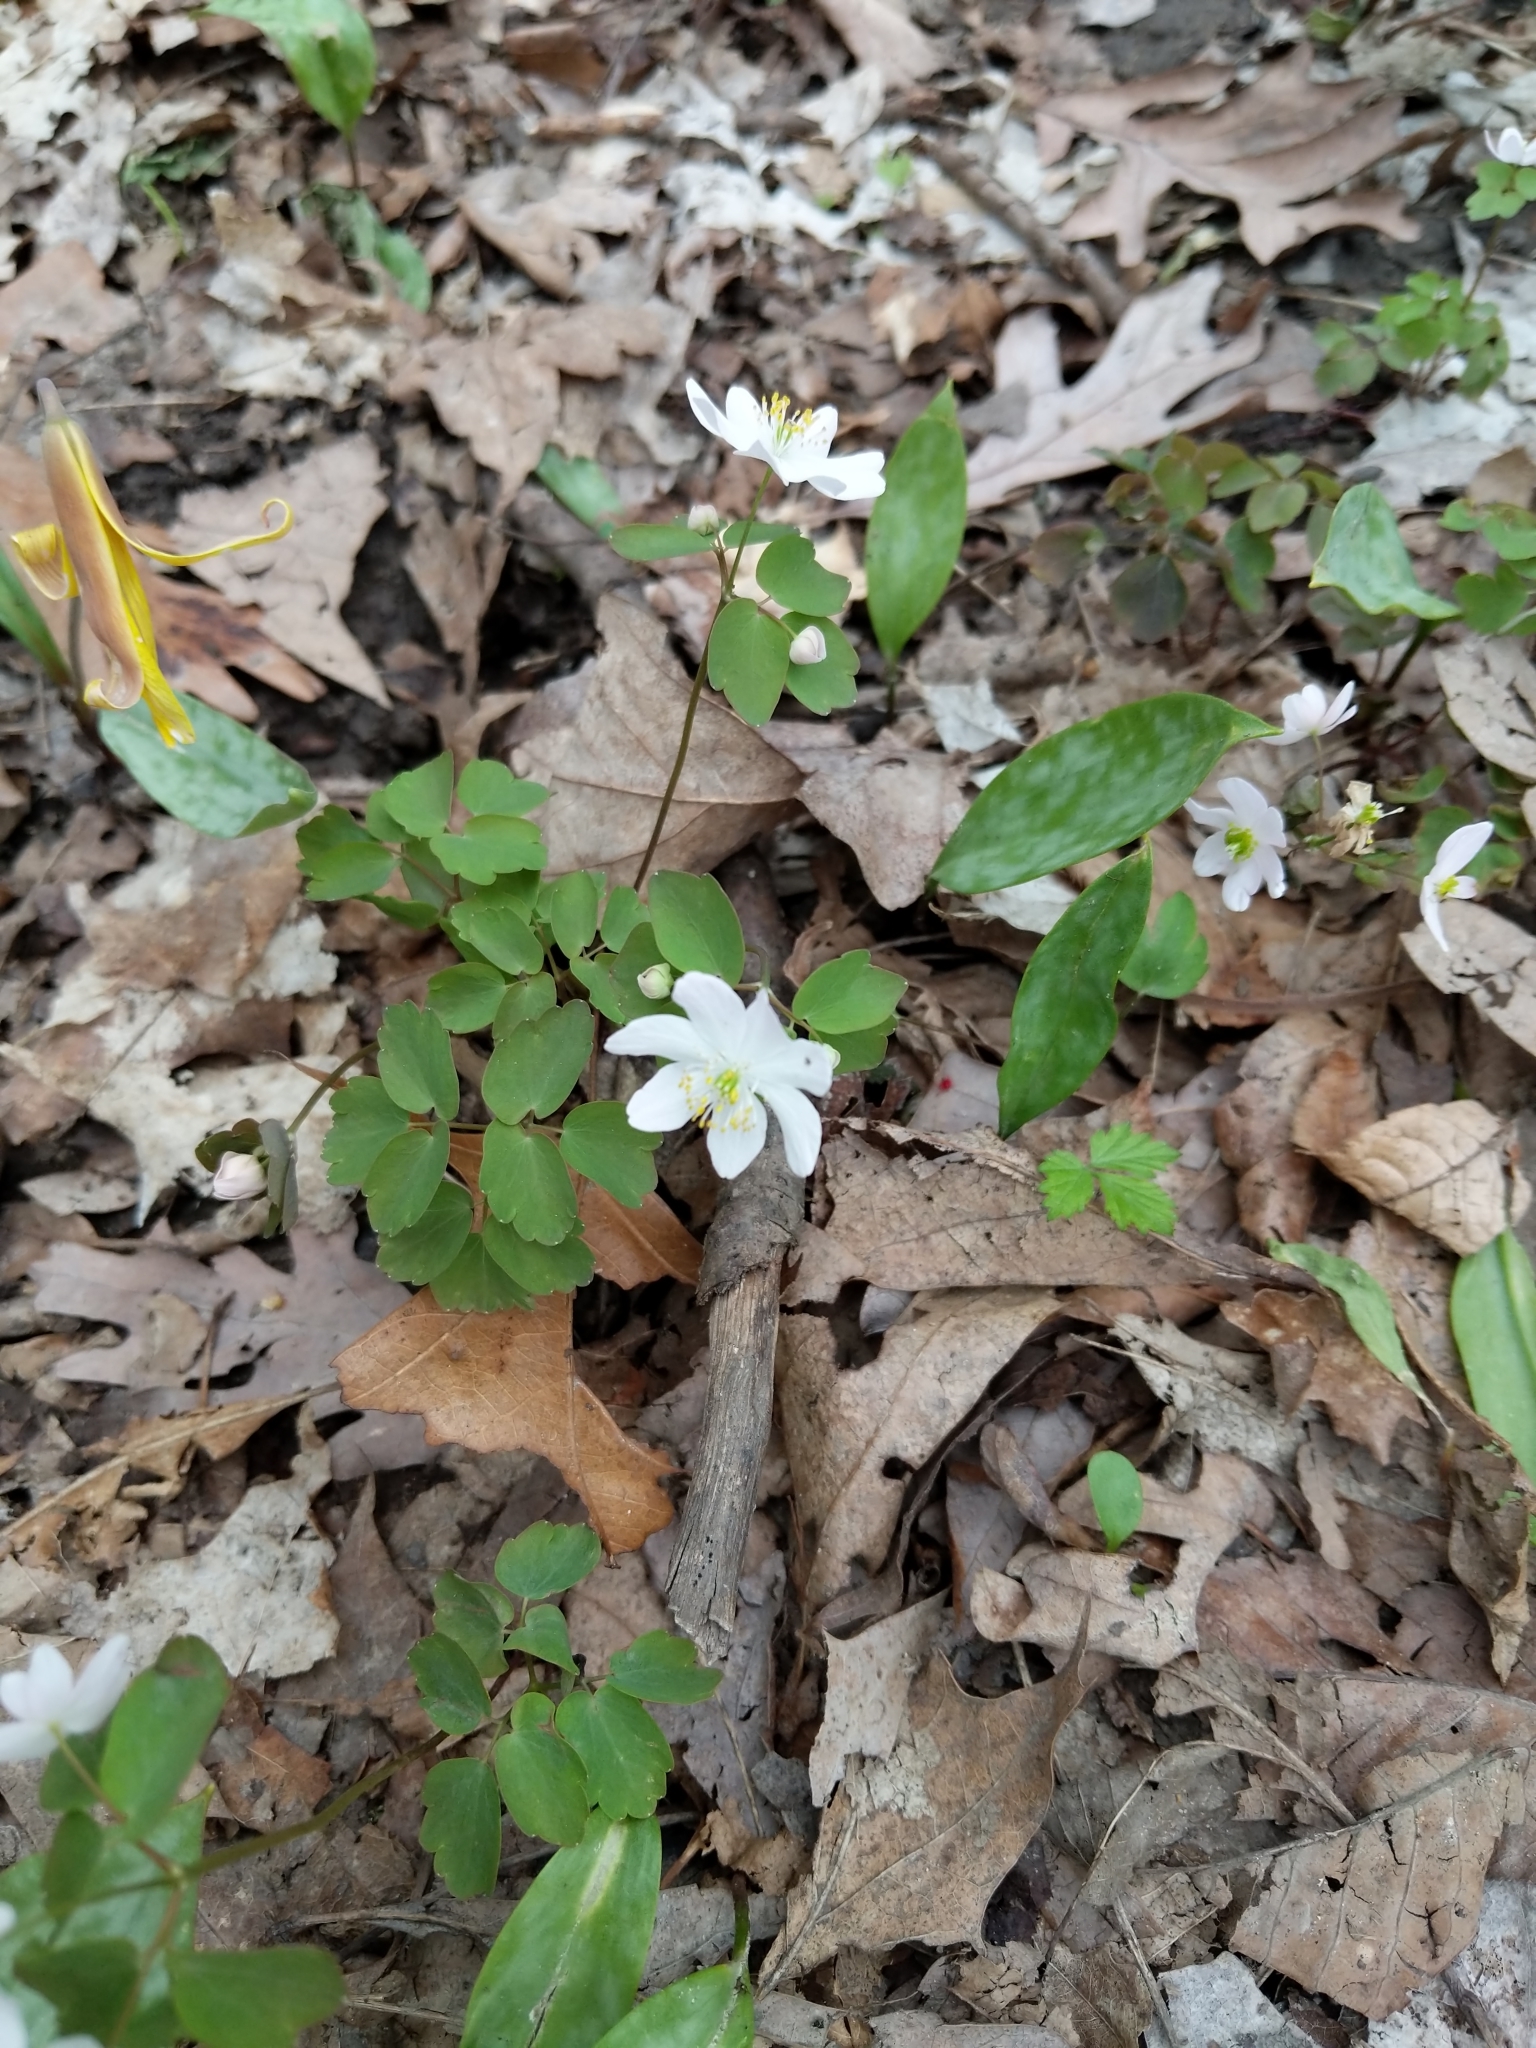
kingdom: Plantae
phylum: Tracheophyta
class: Magnoliopsida
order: Ranunculales
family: Ranunculaceae
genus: Thalictrum
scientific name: Thalictrum thalictroides
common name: Rue-anemone
